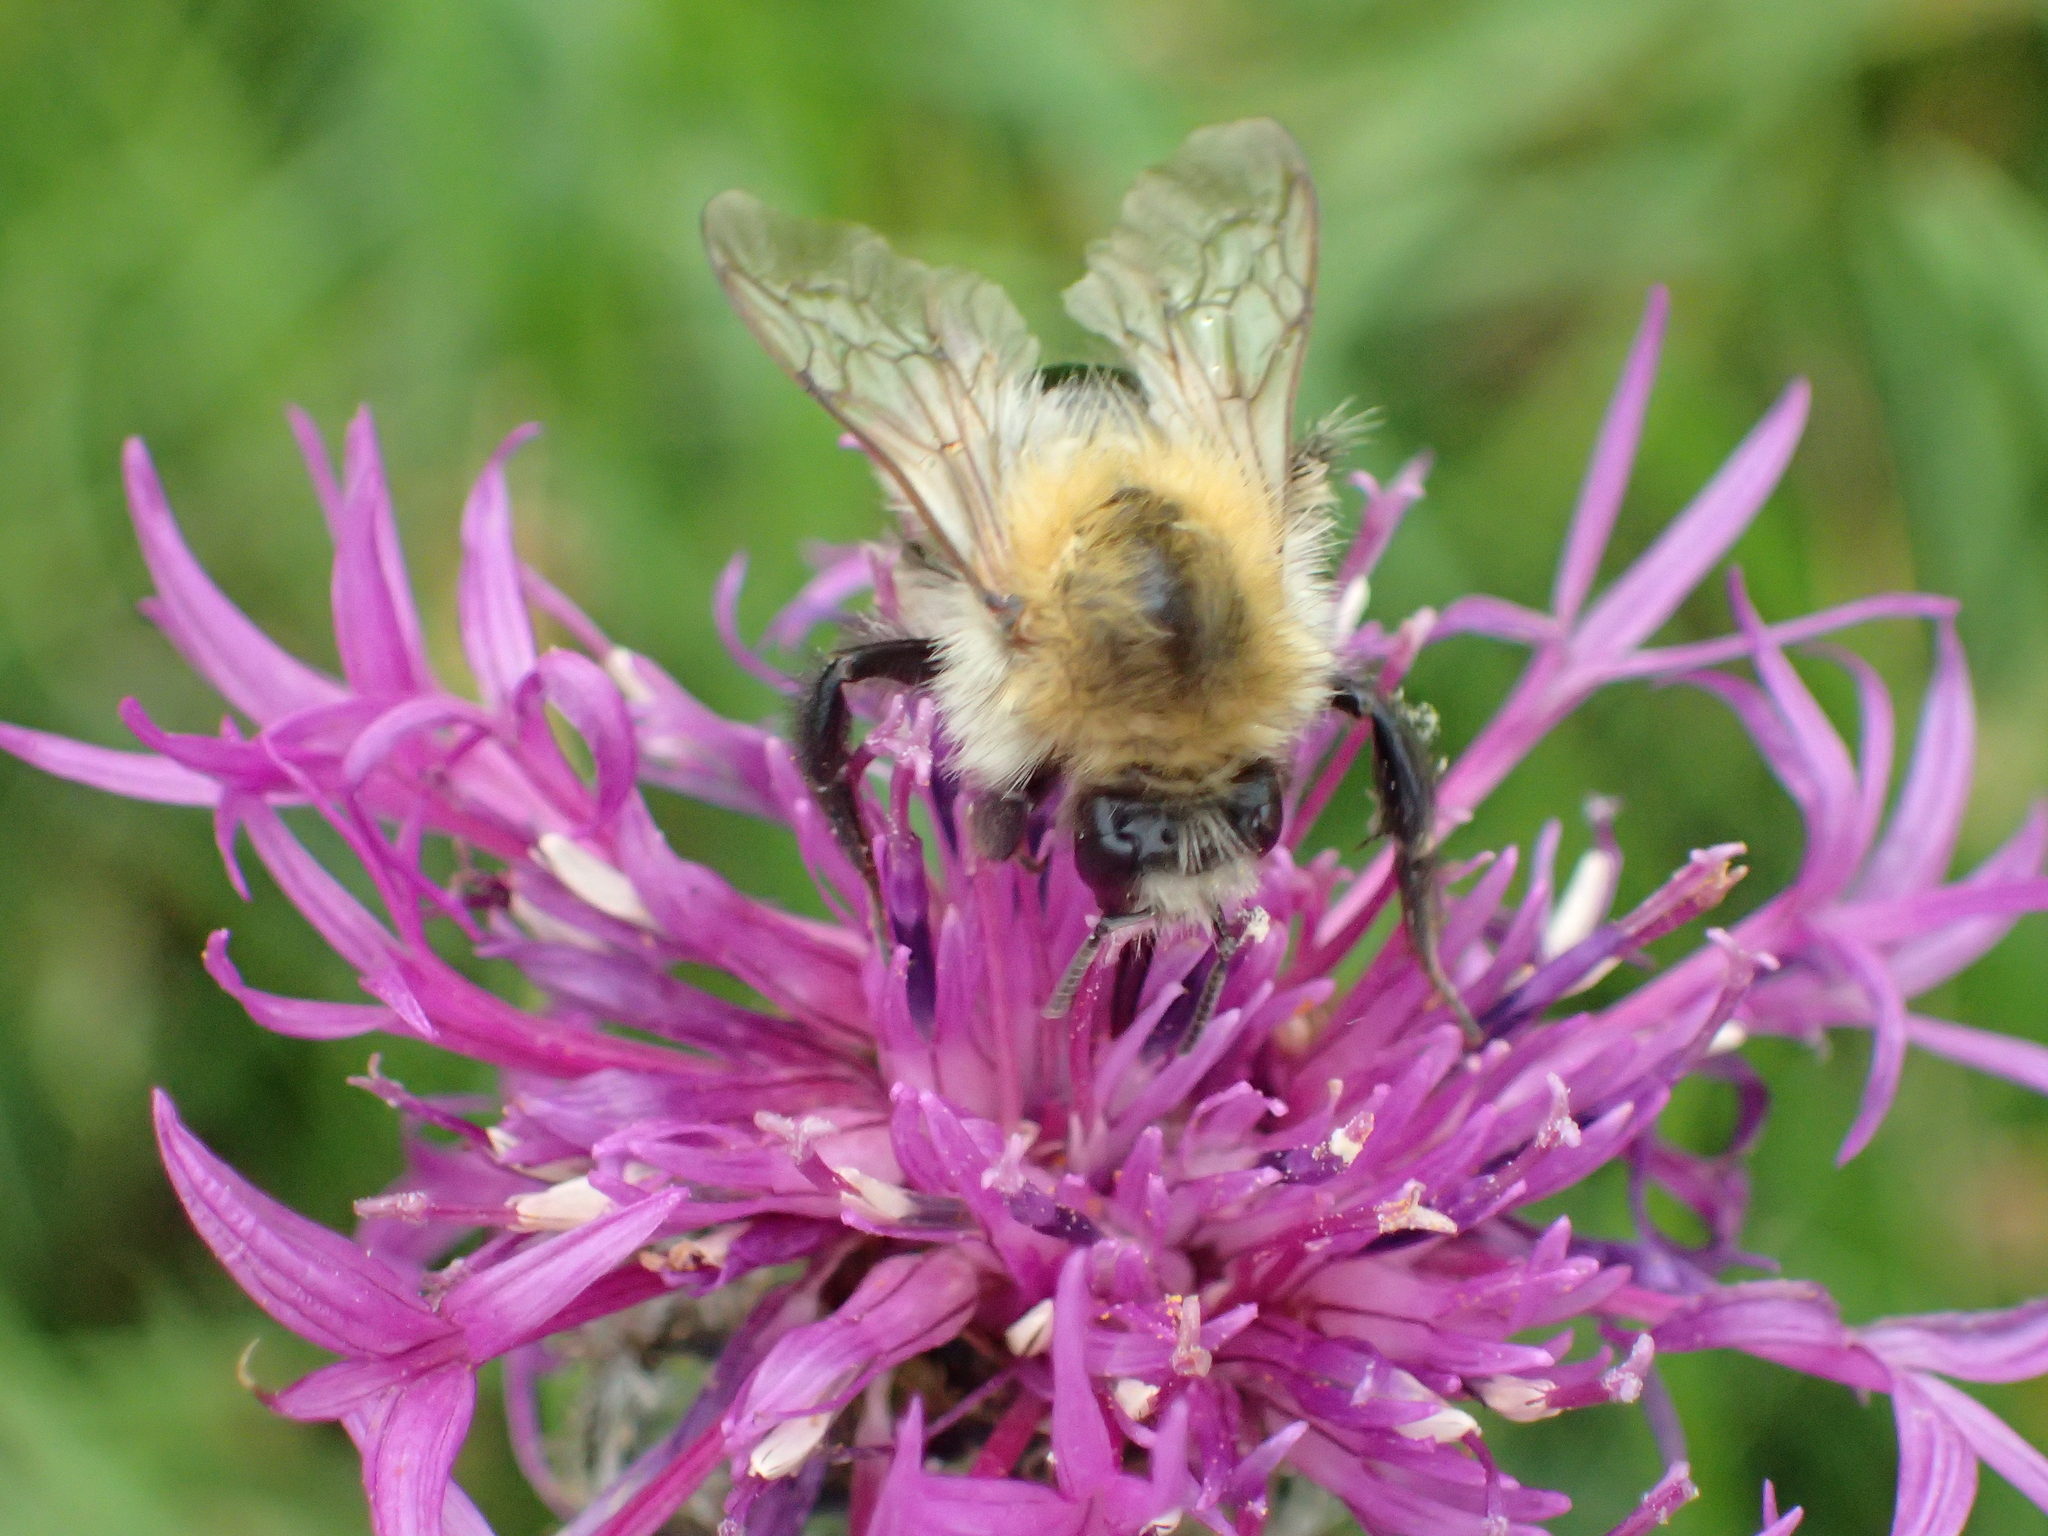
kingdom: Animalia
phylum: Arthropoda
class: Insecta
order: Hymenoptera
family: Apidae
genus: Bombus
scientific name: Bombus pascuorum
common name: Common carder bee
